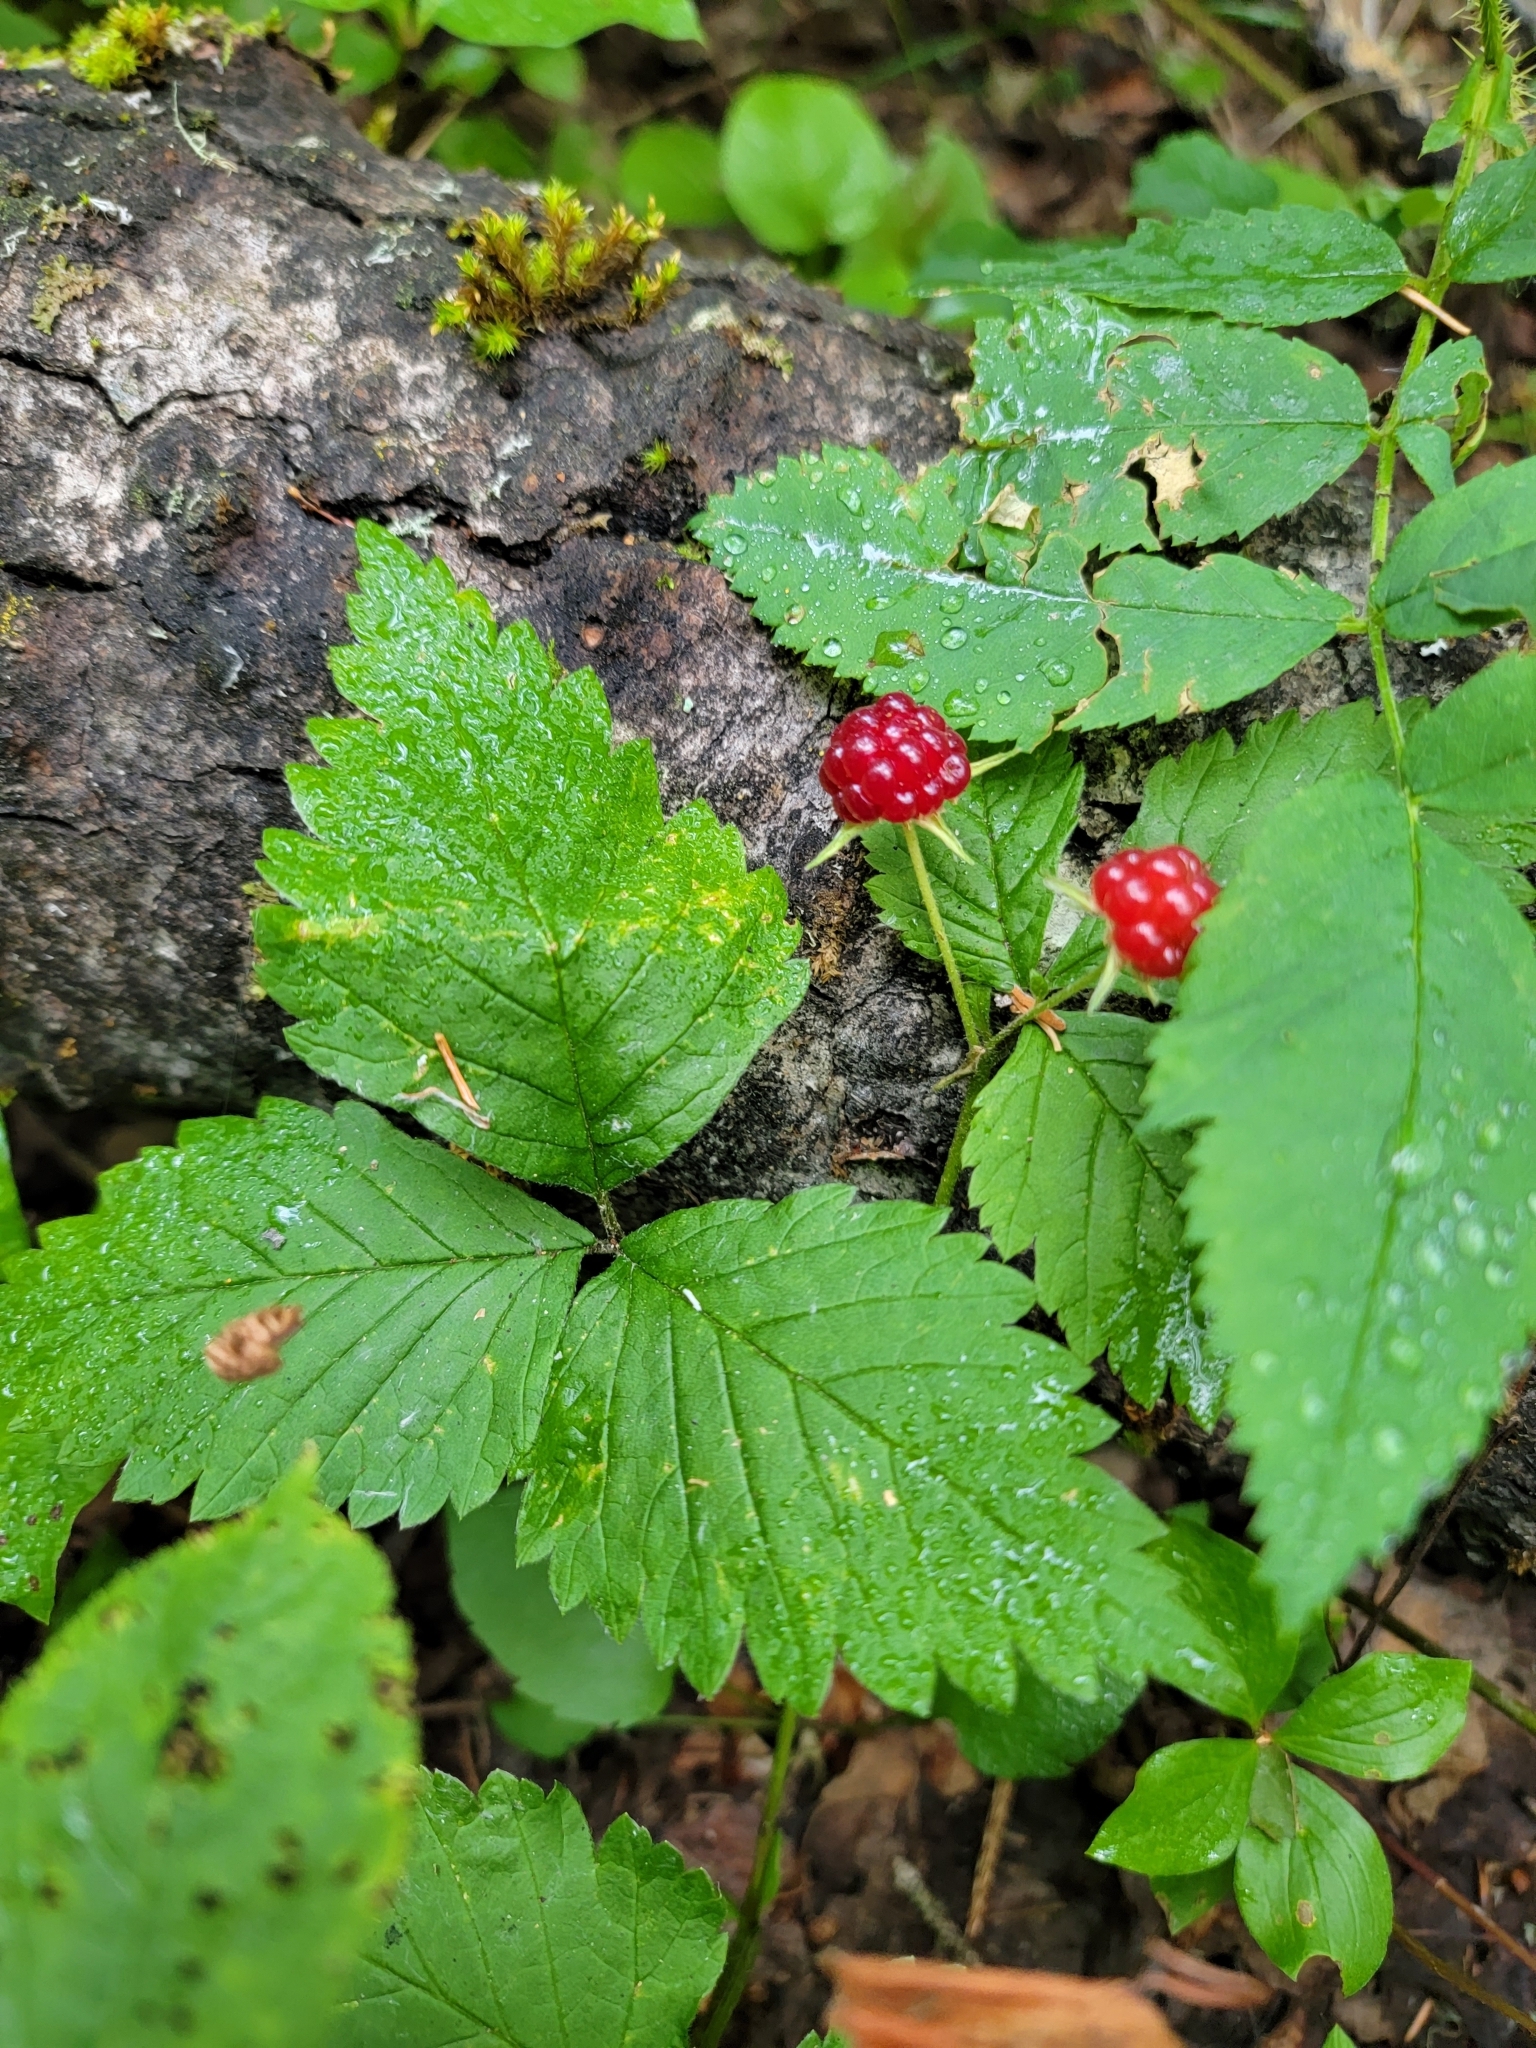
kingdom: Plantae
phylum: Tracheophyta
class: Magnoliopsida
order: Rosales
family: Rosaceae
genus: Rubus
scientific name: Rubus pubescens
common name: Dwarf raspberry
